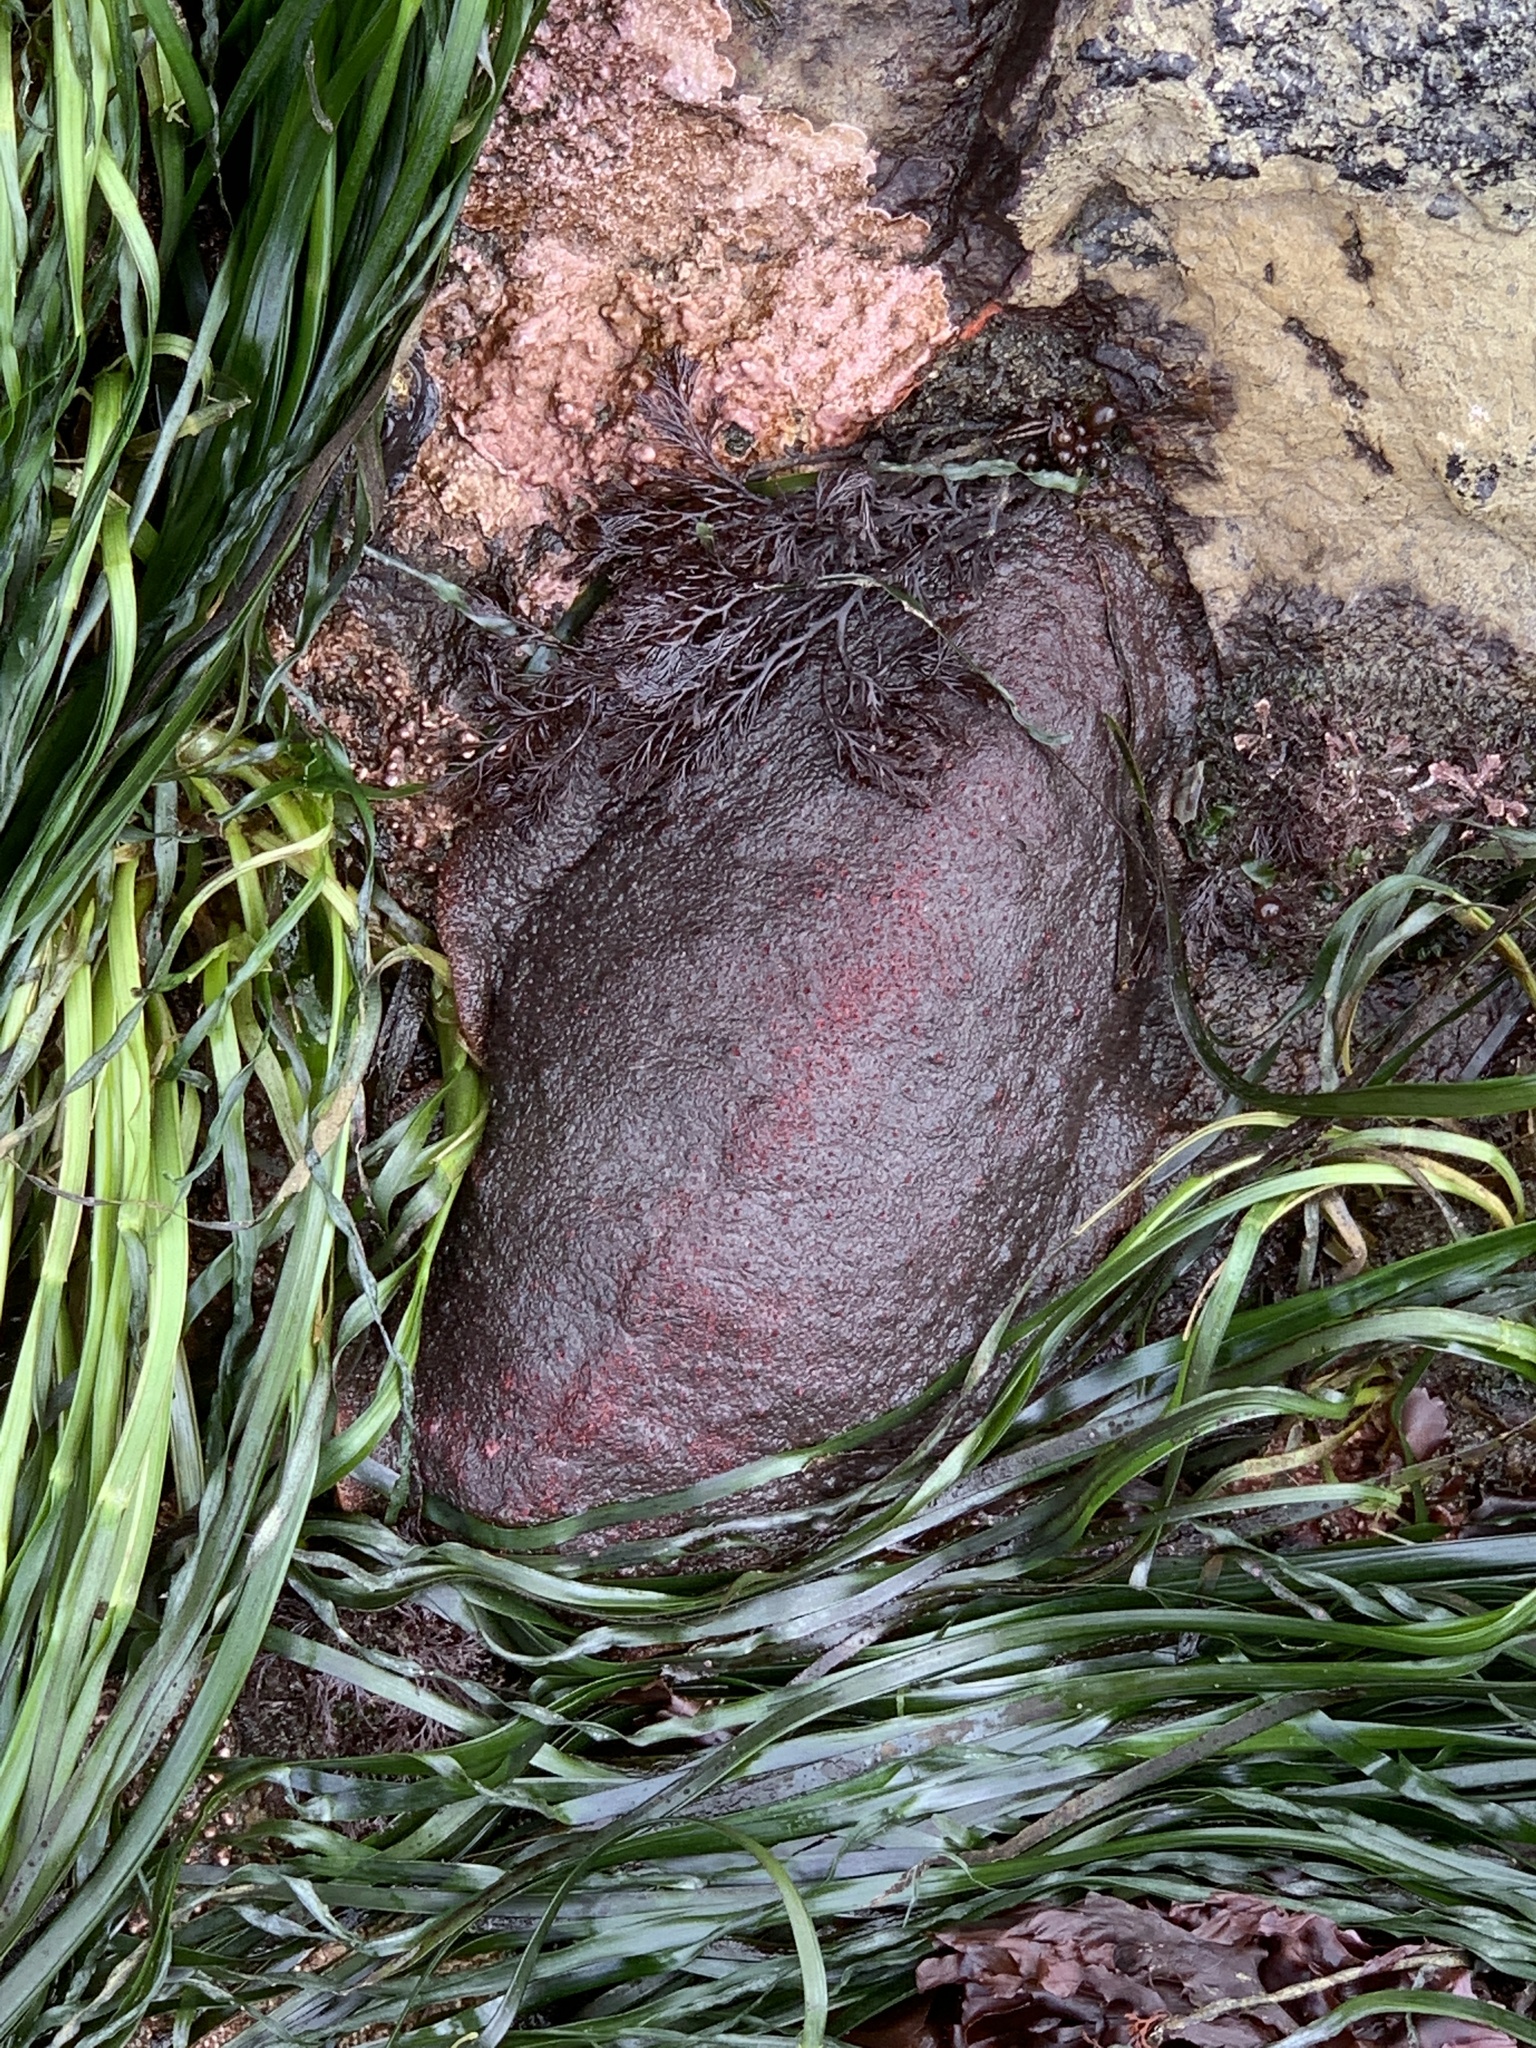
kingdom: Animalia
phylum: Mollusca
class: Polyplacophora
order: Chitonida
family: Acanthochitonidae
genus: Cryptochiton
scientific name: Cryptochiton stelleri
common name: Giant pacific chiton
